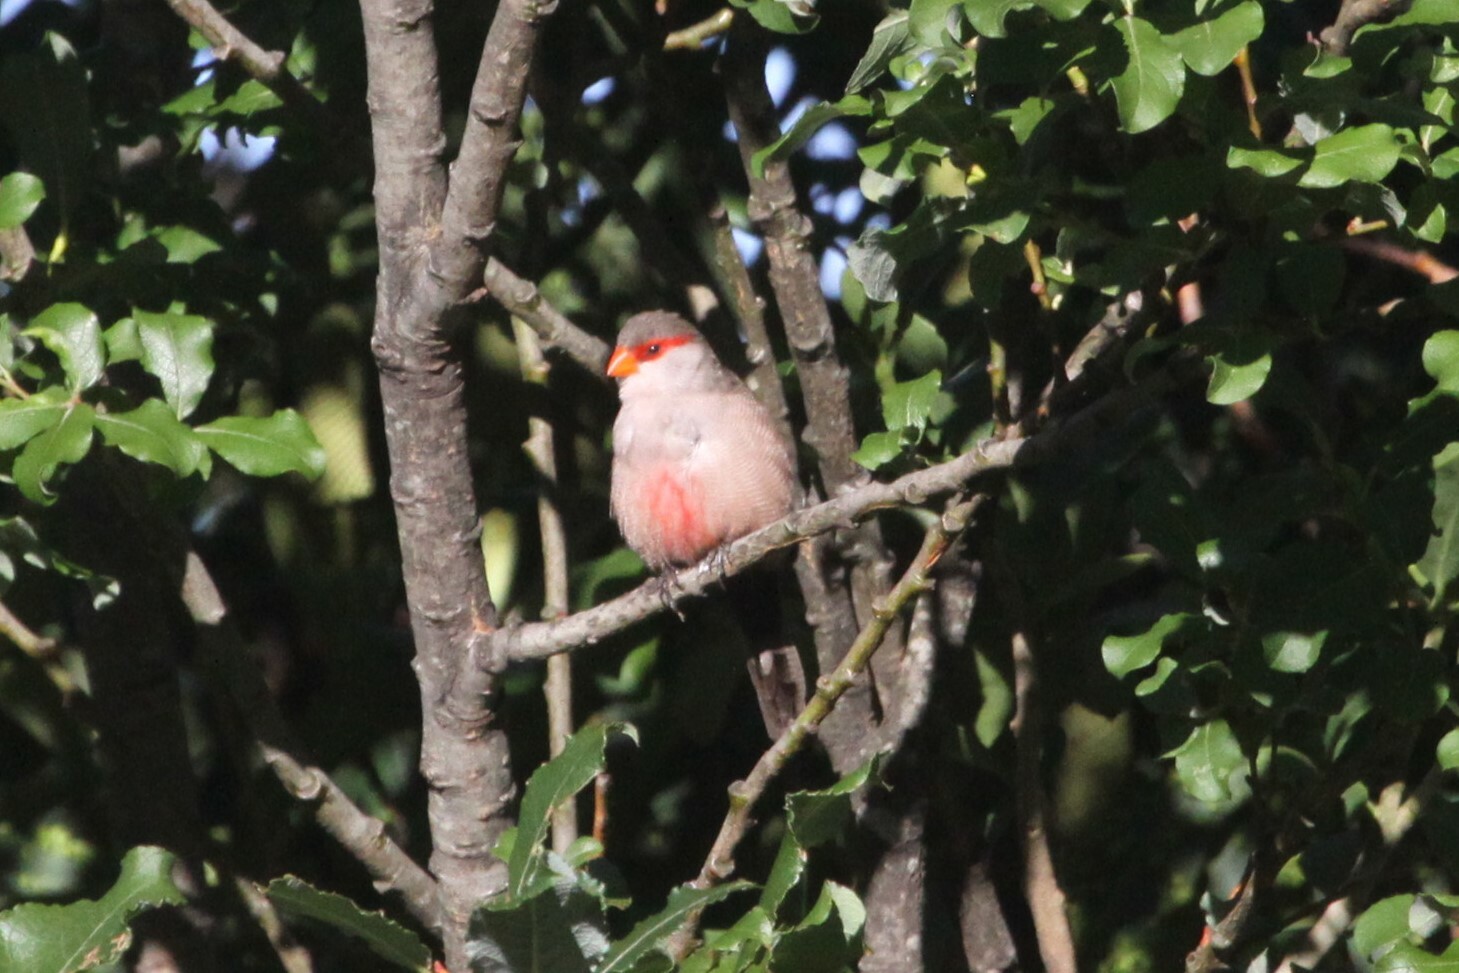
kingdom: Animalia
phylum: Chordata
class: Aves
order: Passeriformes
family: Estrildidae
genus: Estrilda
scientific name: Estrilda astrild
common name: Common waxbill
